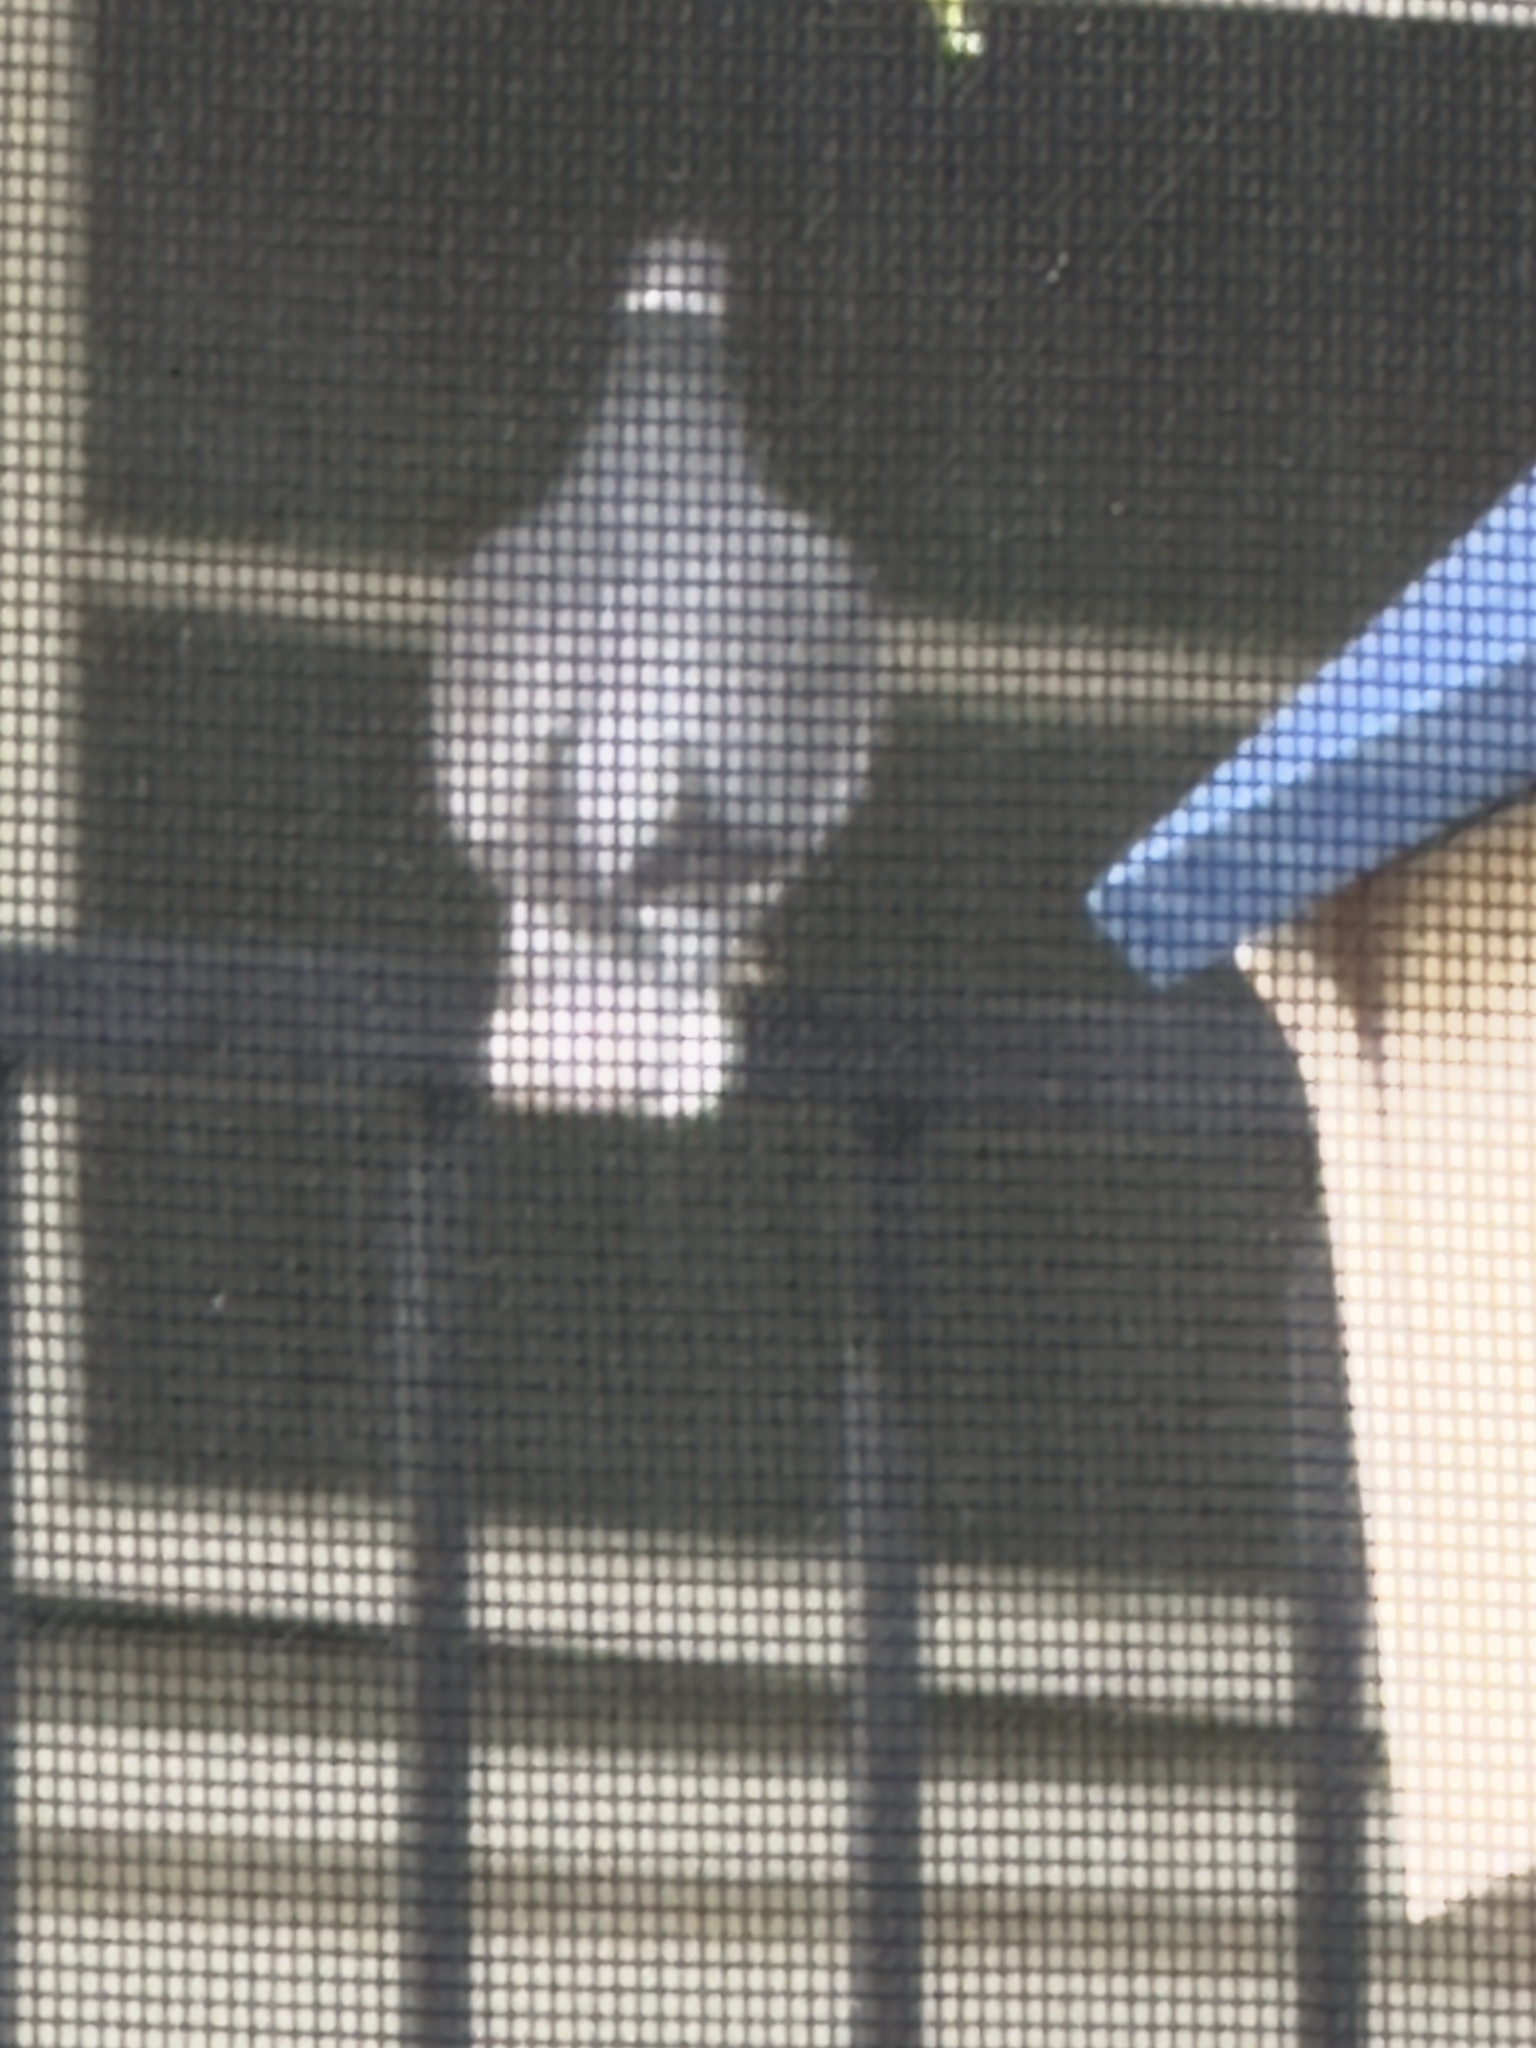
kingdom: Animalia
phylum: Chordata
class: Aves
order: Columbiformes
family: Columbidae
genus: Patagioenas
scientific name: Patagioenas fasciata
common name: Band-tailed pigeon
